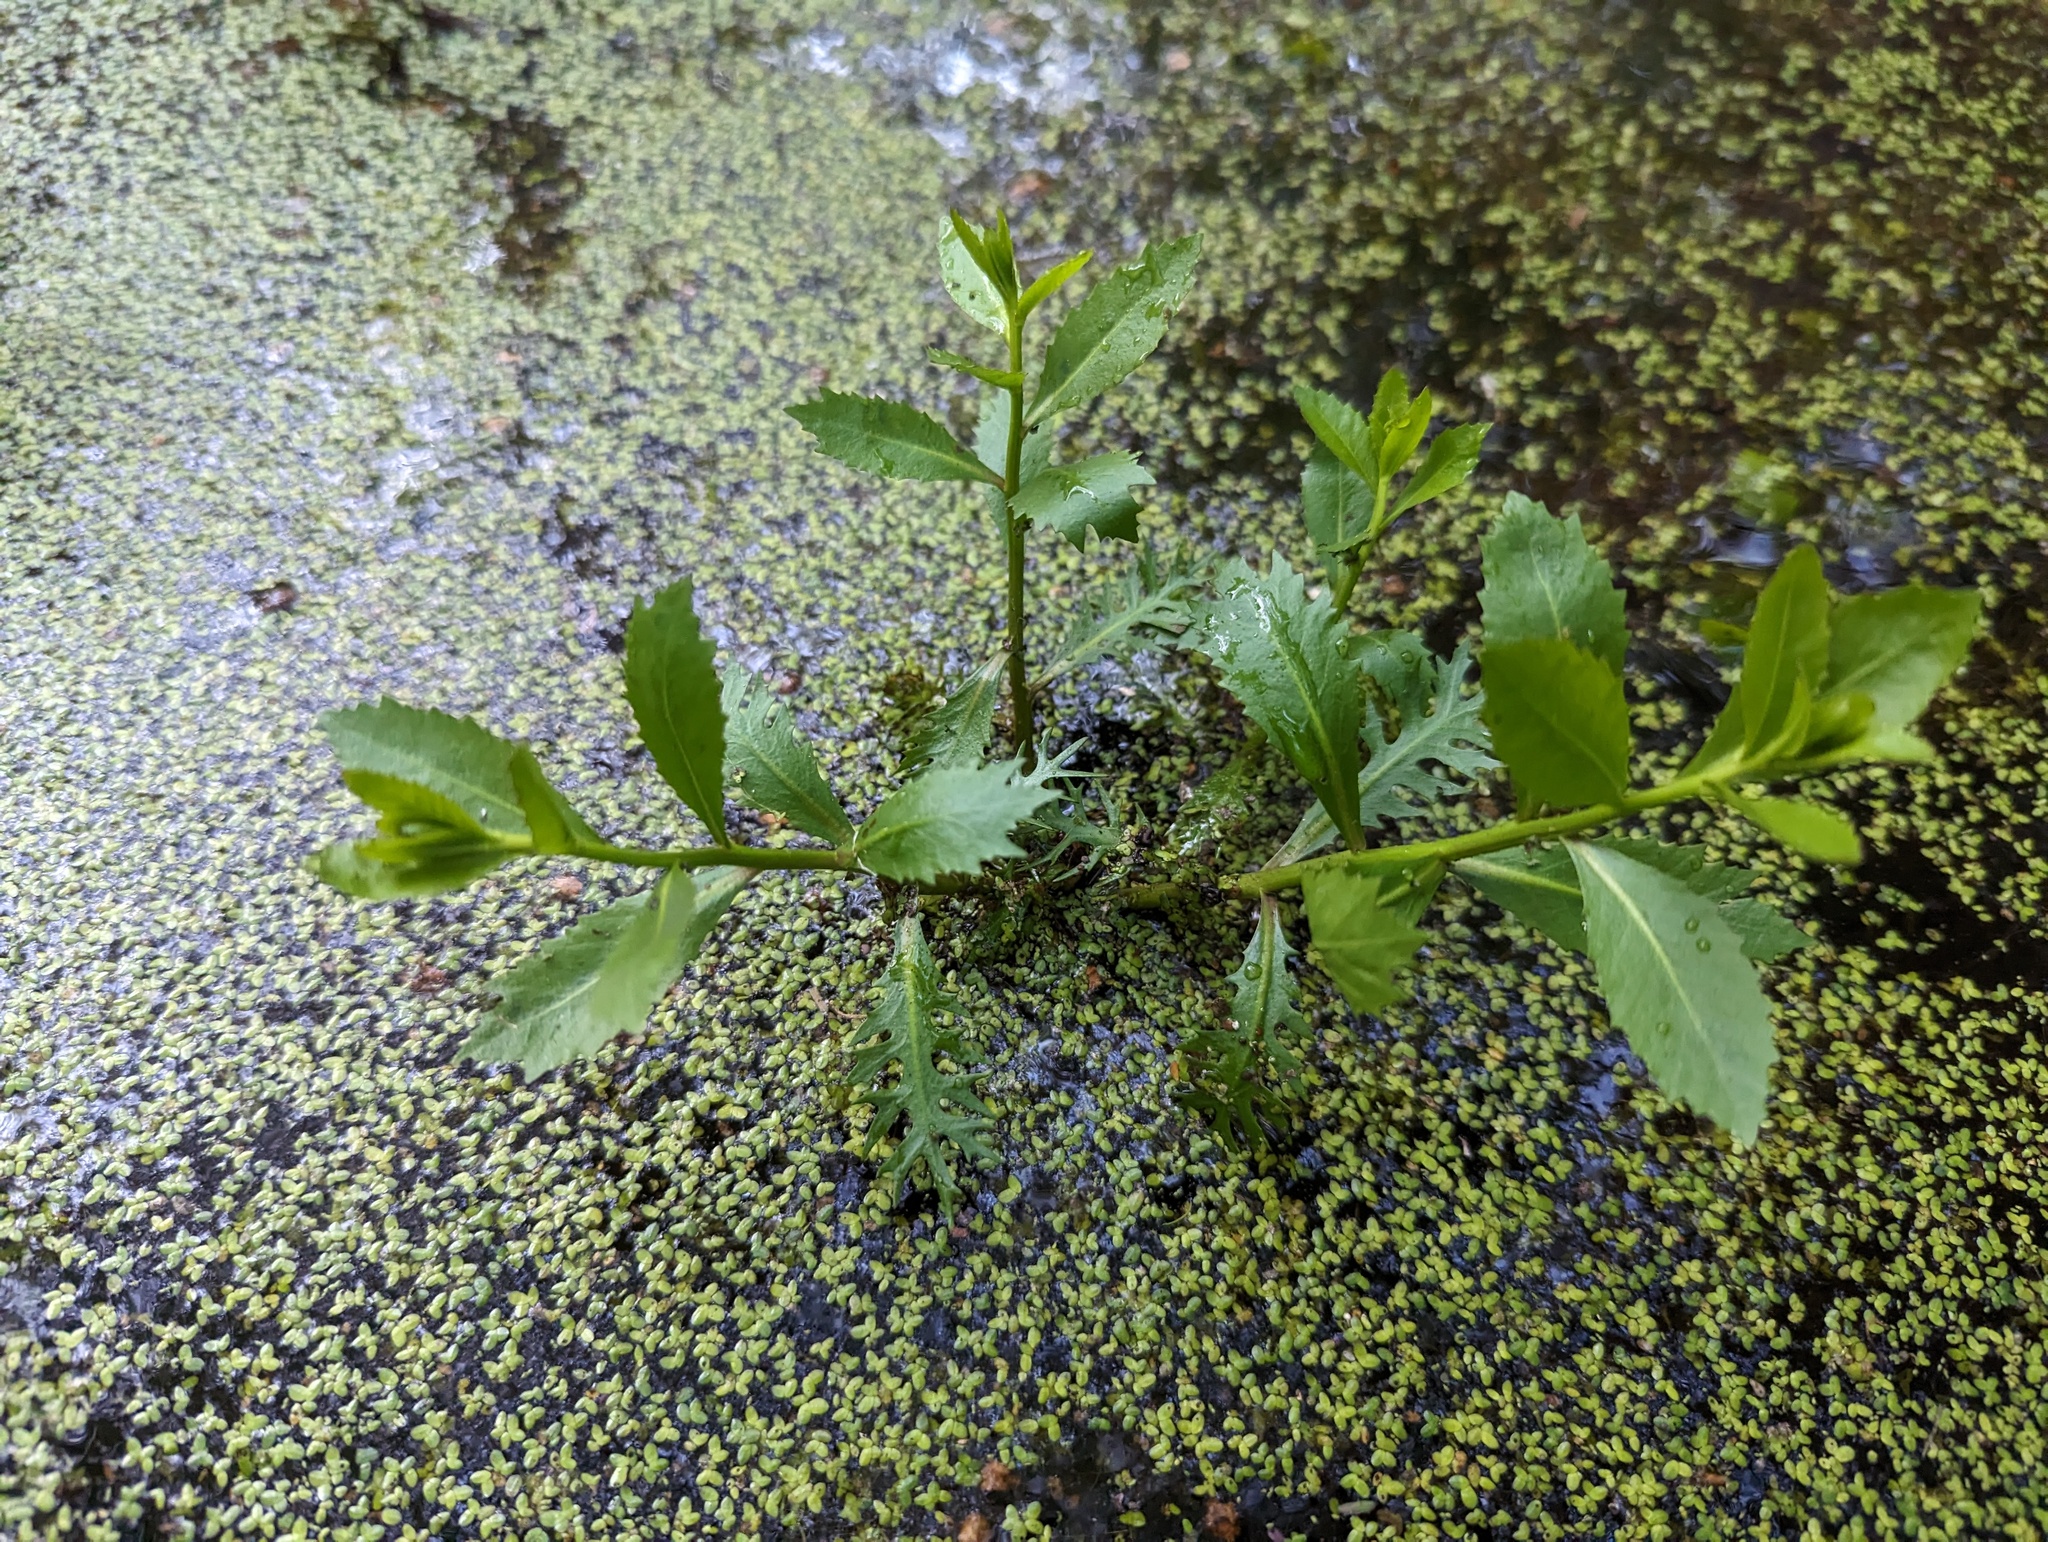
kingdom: Plantae
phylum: Tracheophyta
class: Magnoliopsida
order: Saxifragales
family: Haloragaceae
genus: Proserpinaca
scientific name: Proserpinaca palustris
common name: Marsh mermaidweed
